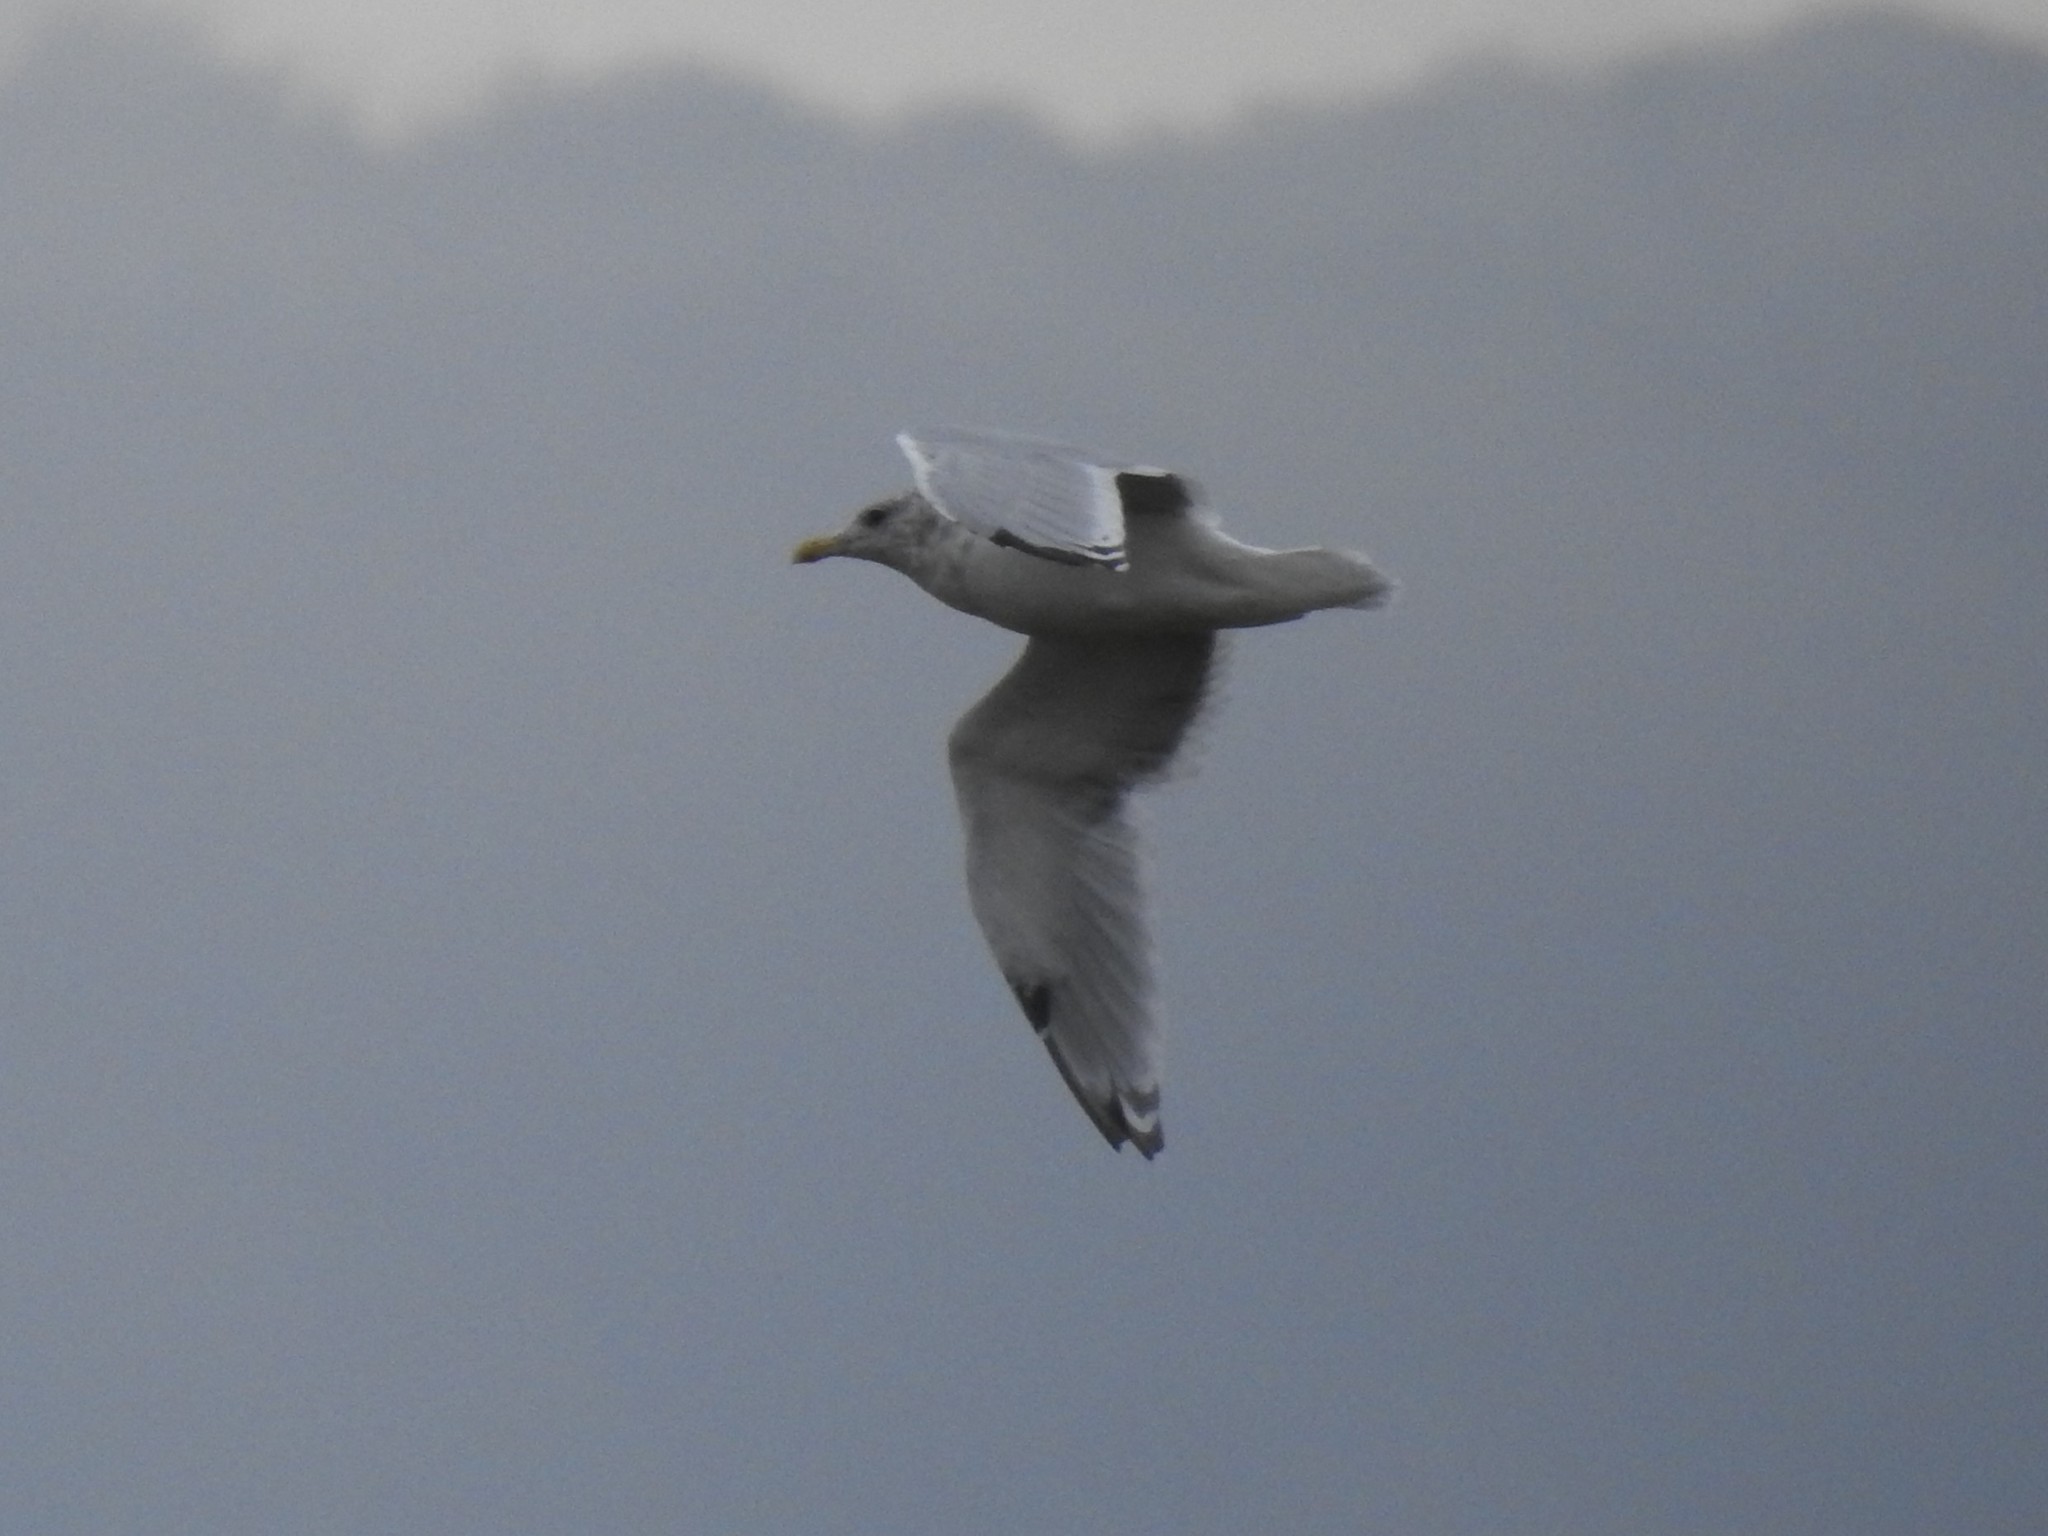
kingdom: Animalia
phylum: Chordata
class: Aves
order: Charadriiformes
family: Laridae
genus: Larus
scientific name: Larus
